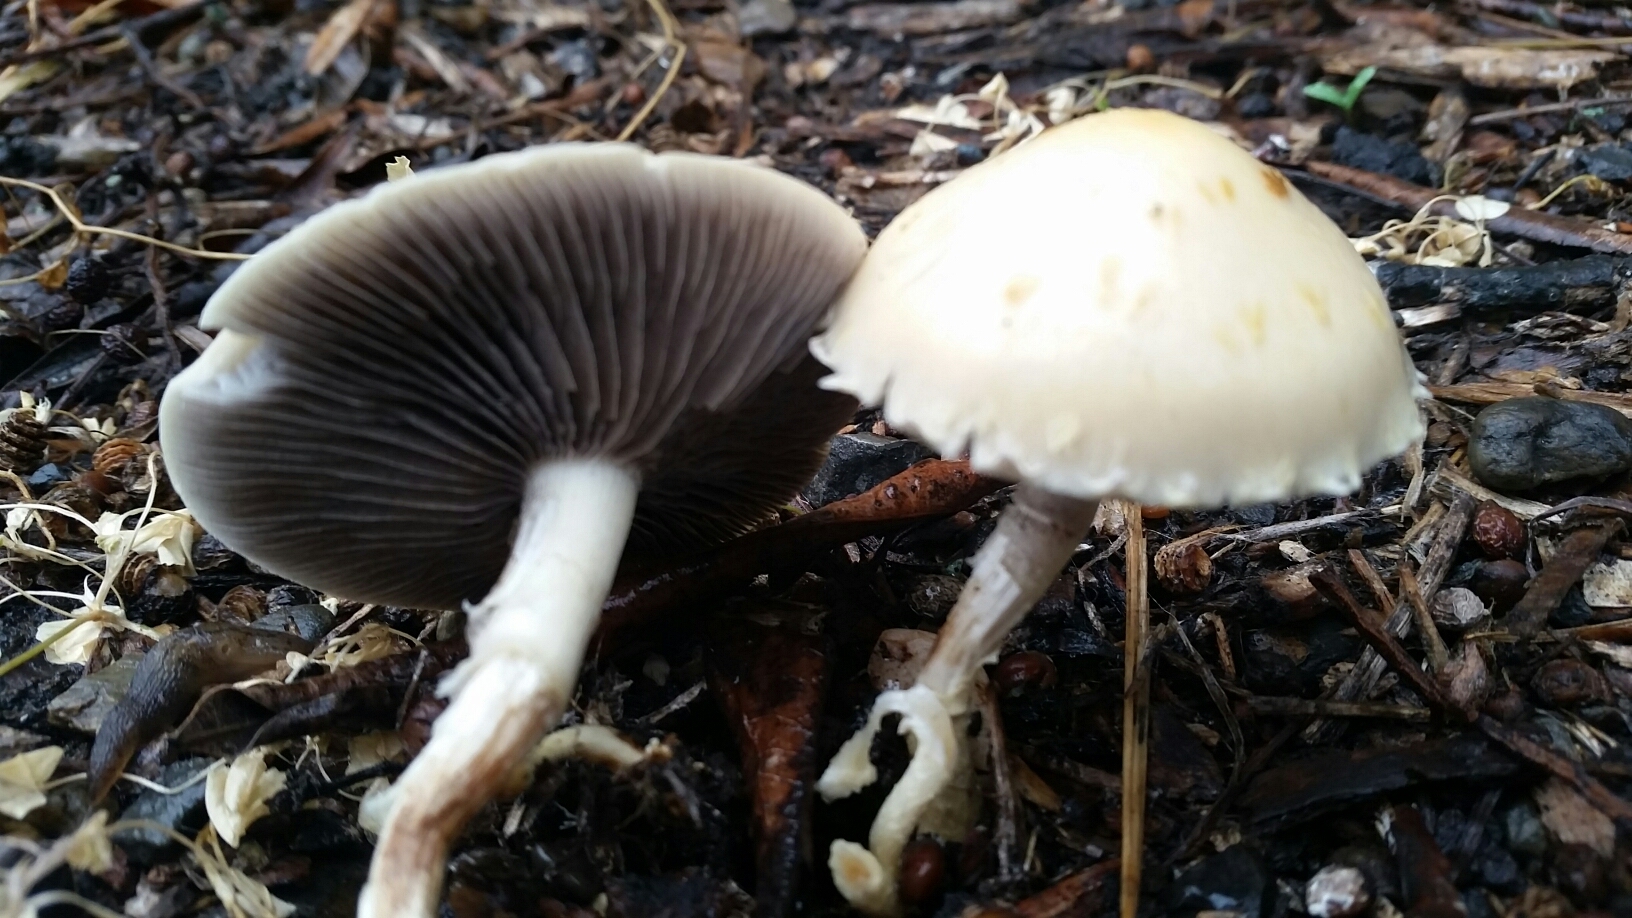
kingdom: Fungi
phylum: Basidiomycota
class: Agaricomycetes
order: Agaricales
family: Strophariaceae
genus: Leratiomyces
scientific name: Leratiomyces percevalii
